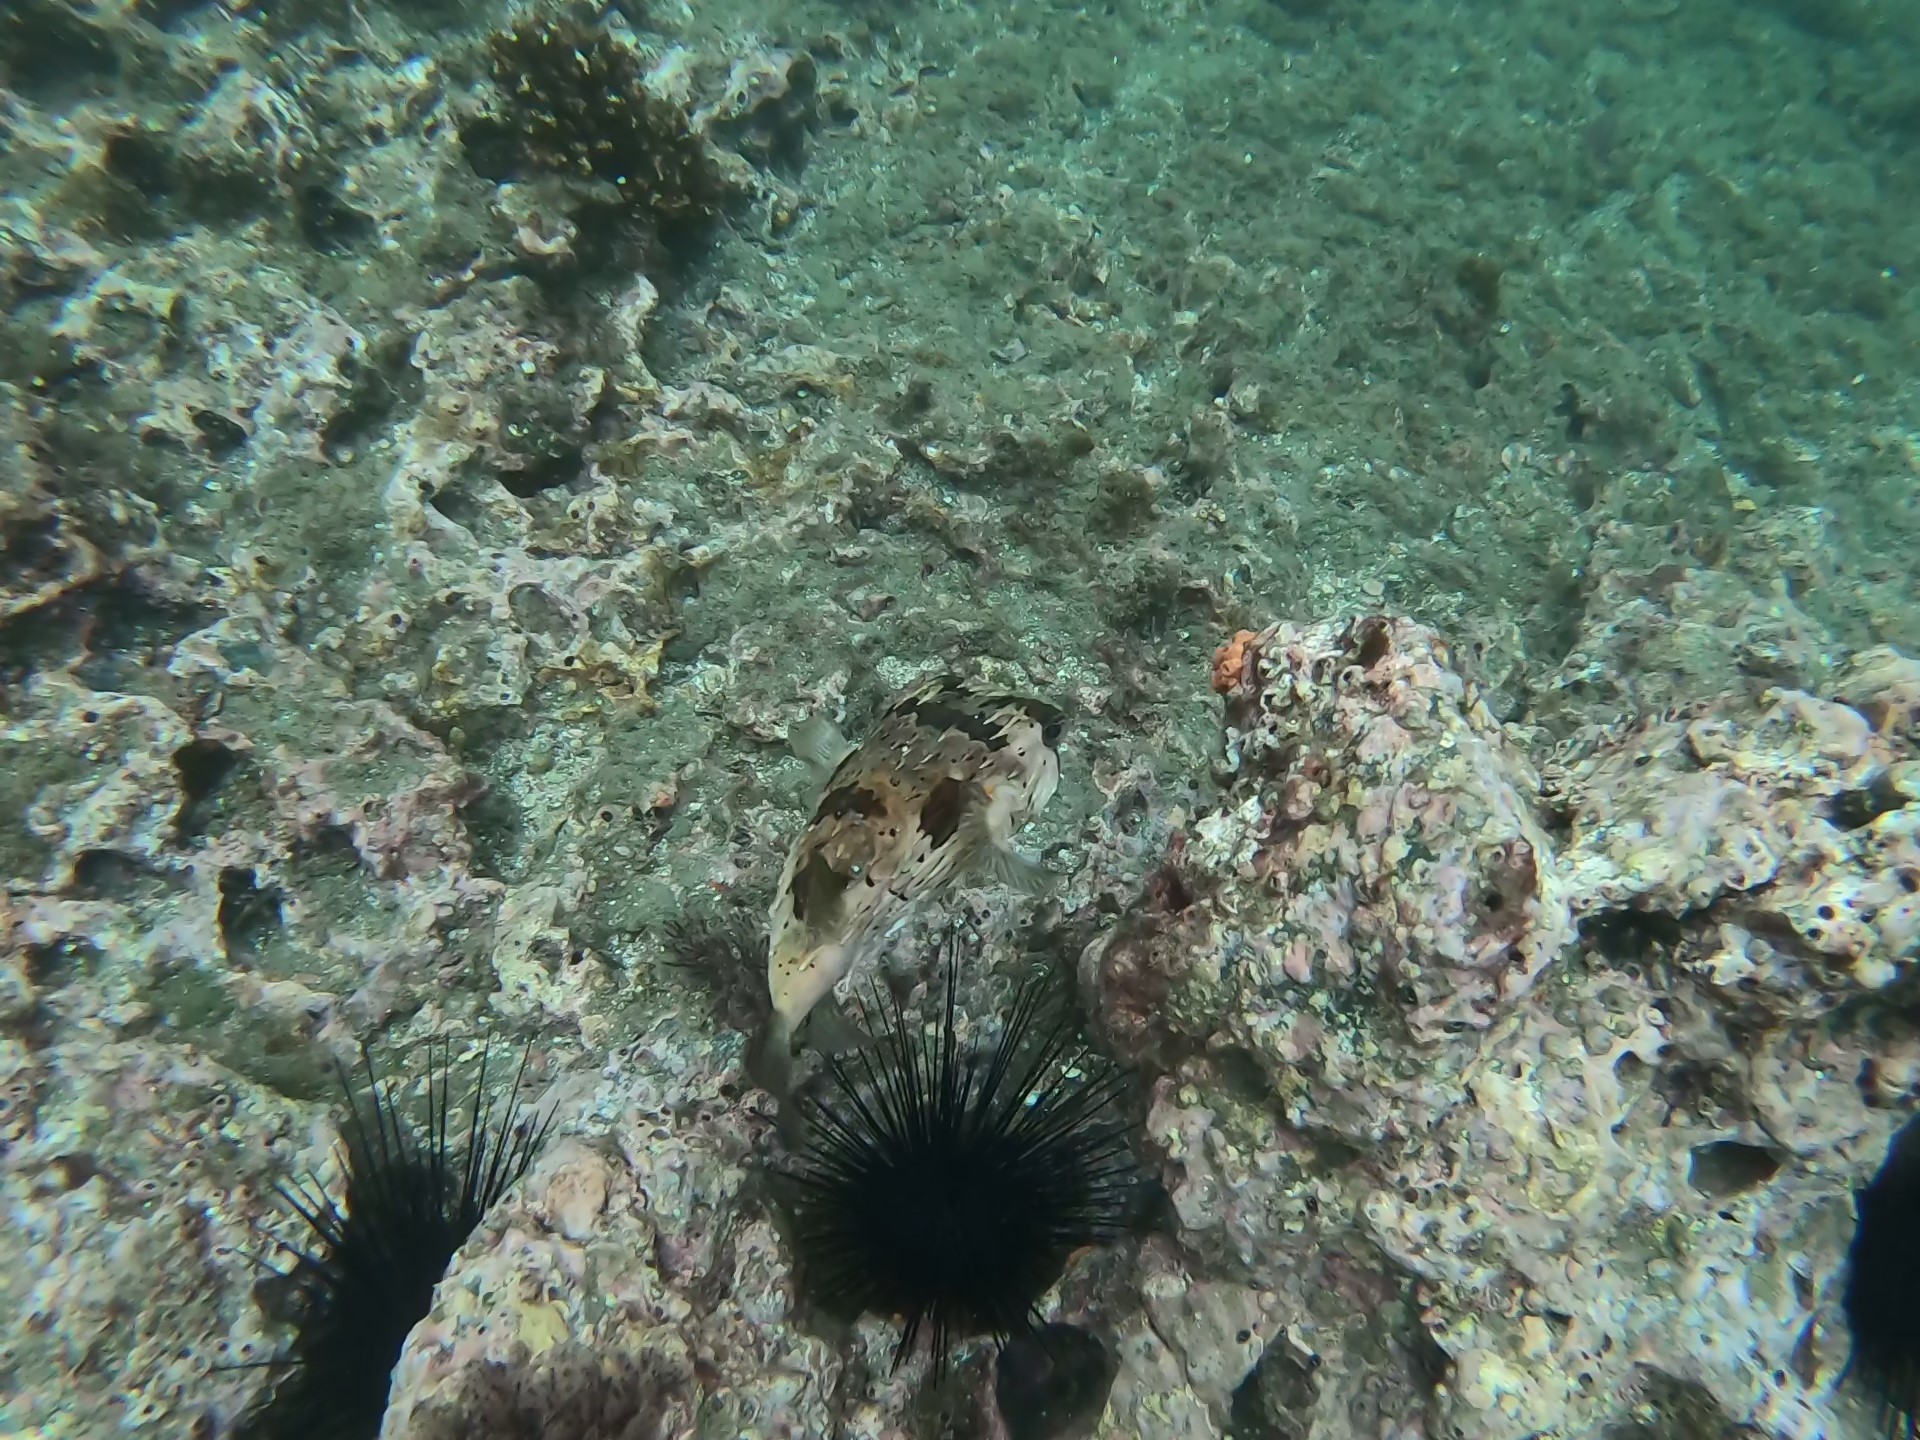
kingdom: Animalia
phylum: Chordata
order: Tetraodontiformes
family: Diodontidae
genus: Diodon
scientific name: Diodon holocanthus
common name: Balloonfish
